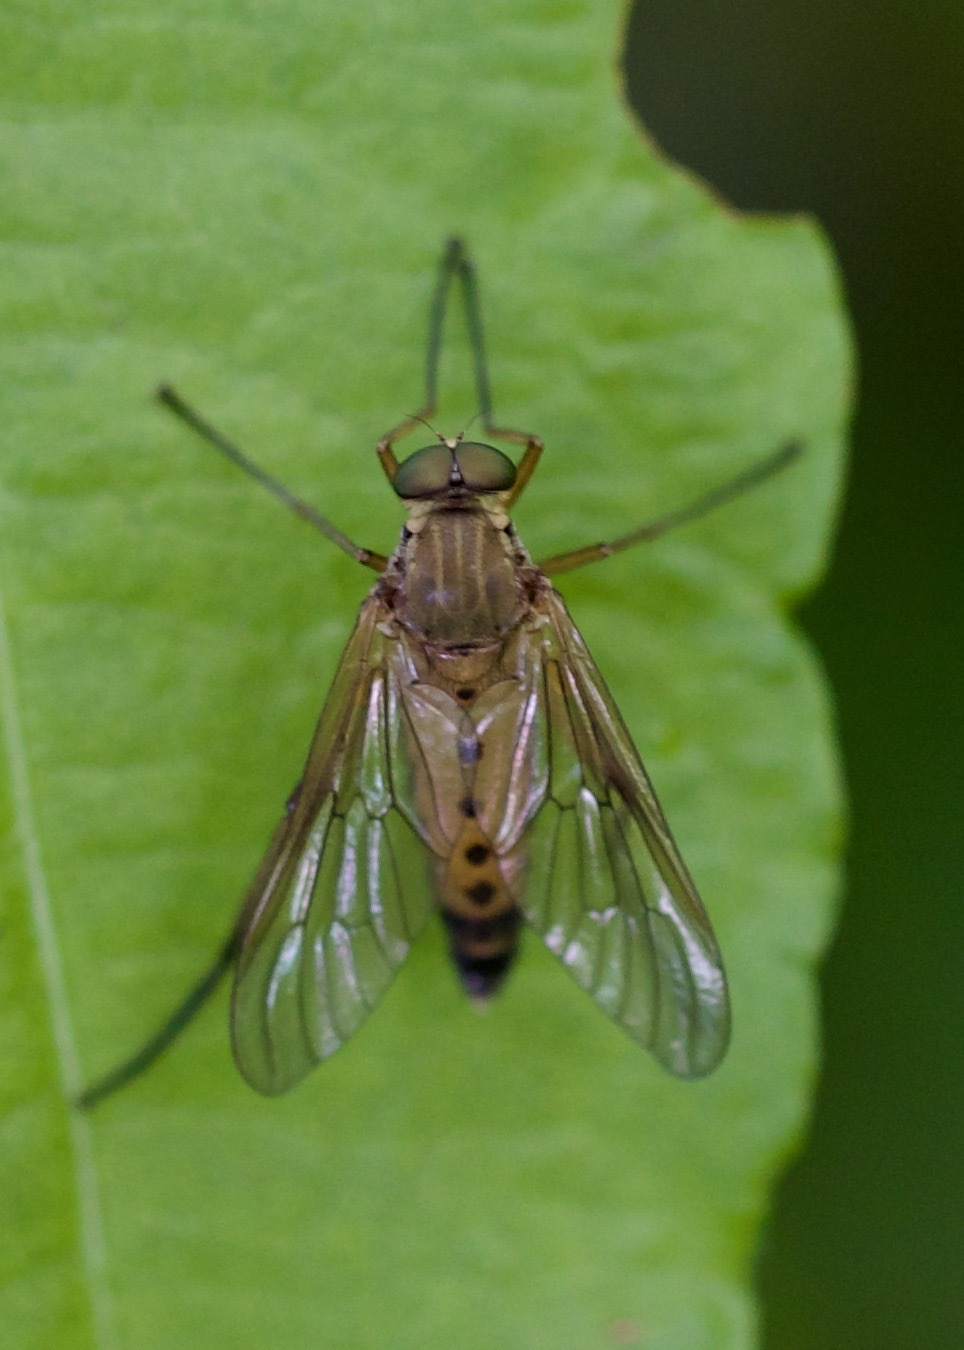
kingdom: Animalia
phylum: Arthropoda
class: Insecta
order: Diptera
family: Rhagionidae
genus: Rhagio
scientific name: Rhagio tringaria
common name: Marsh snipefly
